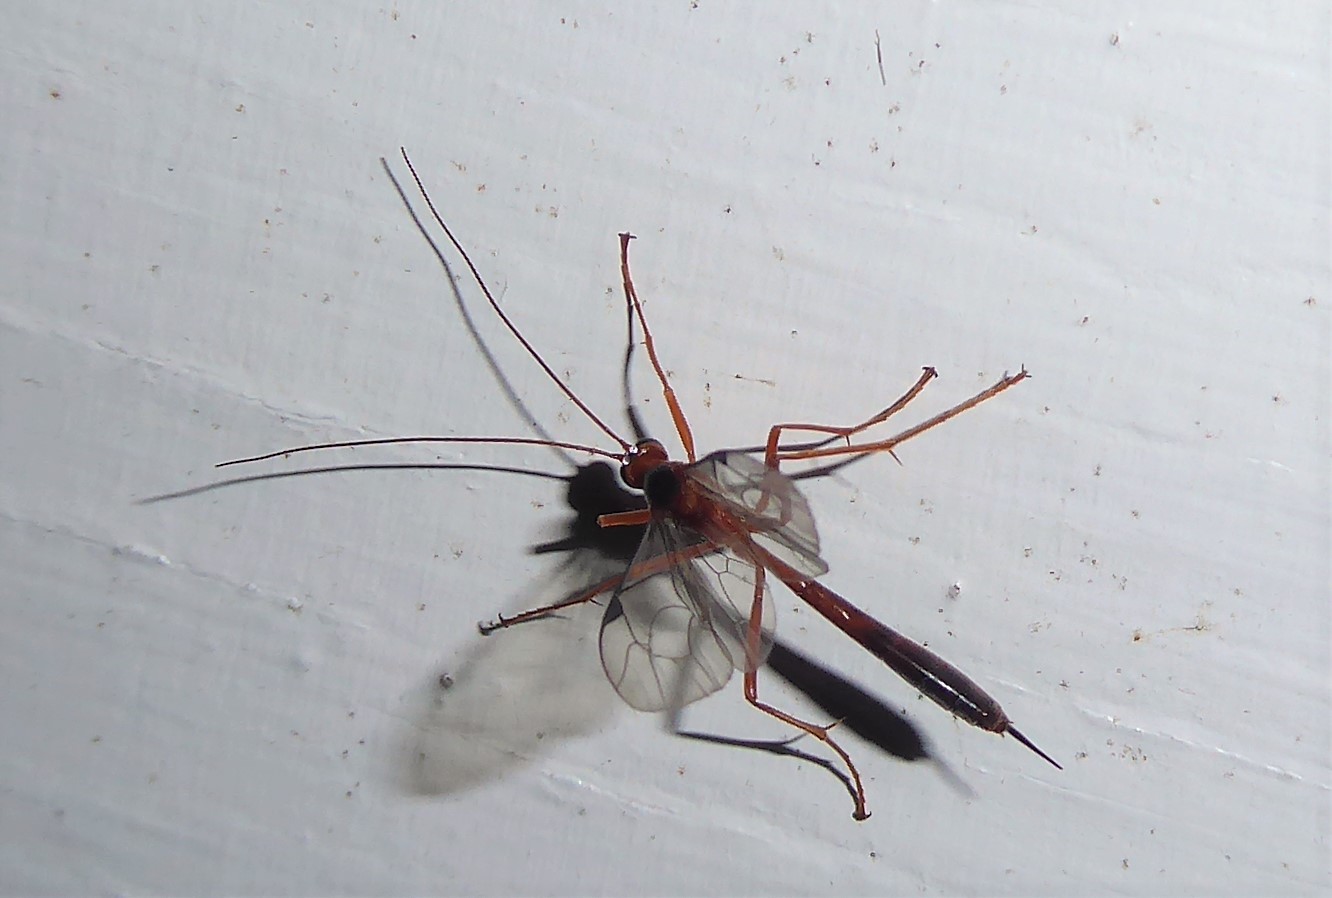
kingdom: Animalia
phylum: Arthropoda
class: Insecta
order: Hymenoptera
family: Ichneumonidae
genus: Netelia
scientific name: Netelia ephippiata
